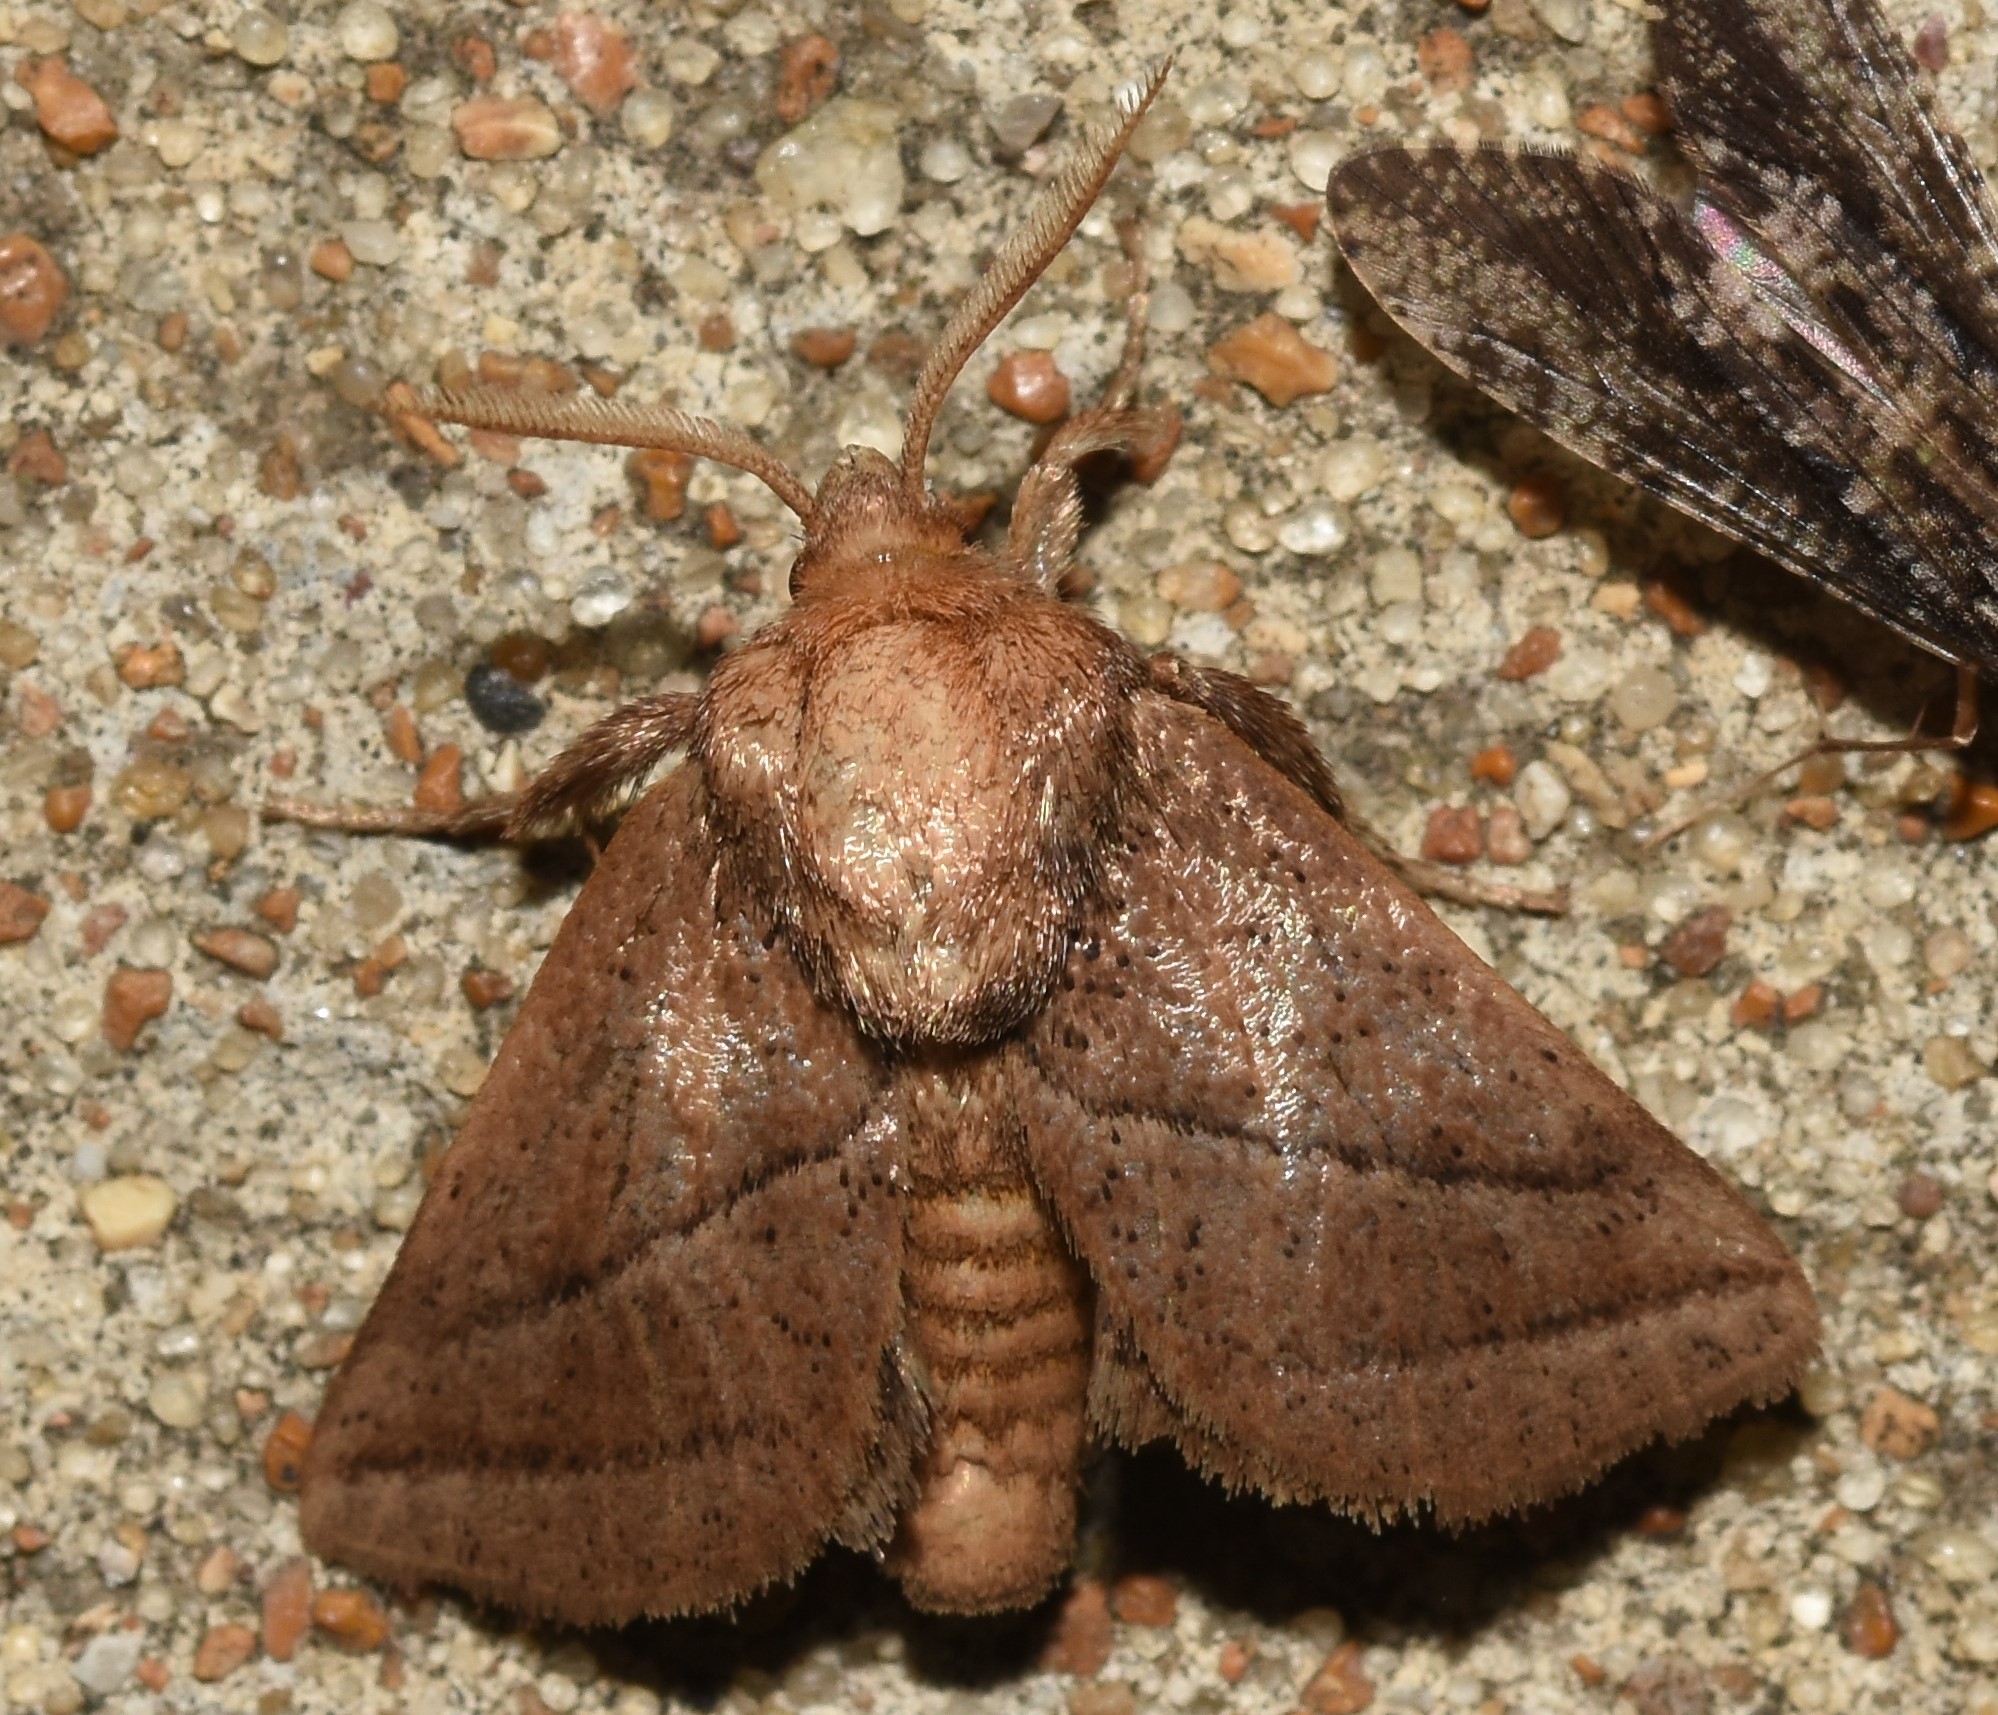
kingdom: Animalia
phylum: Arthropoda
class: Insecta
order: Lepidoptera
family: Limacodidae
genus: Natada
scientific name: Natada nasoni
